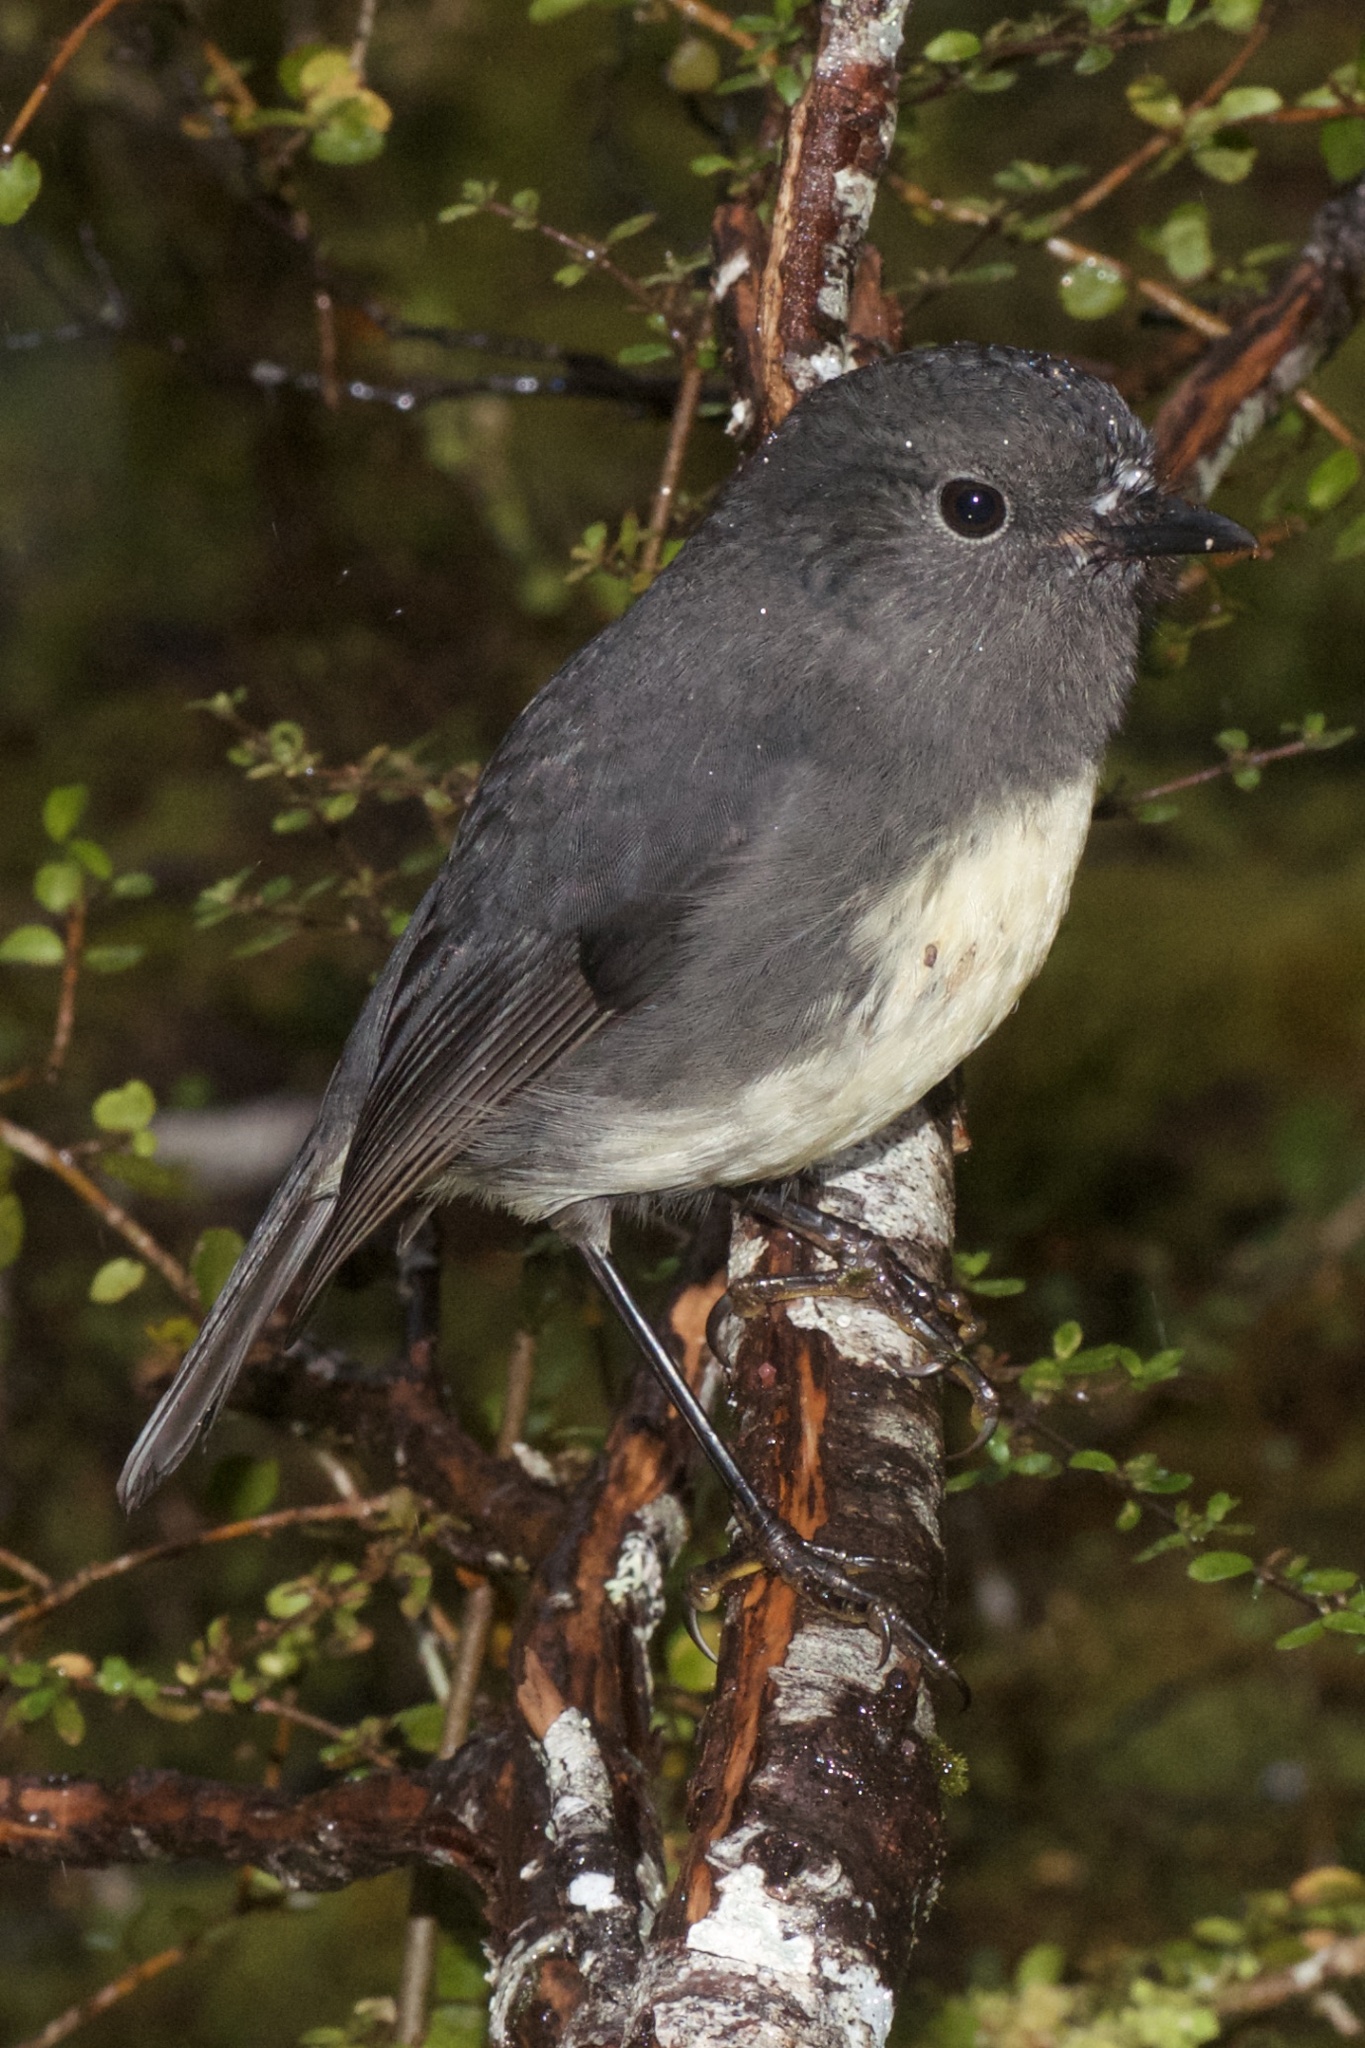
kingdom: Animalia
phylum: Chordata
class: Aves
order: Passeriformes
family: Petroicidae
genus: Petroica
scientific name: Petroica australis
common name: New zealand robin
